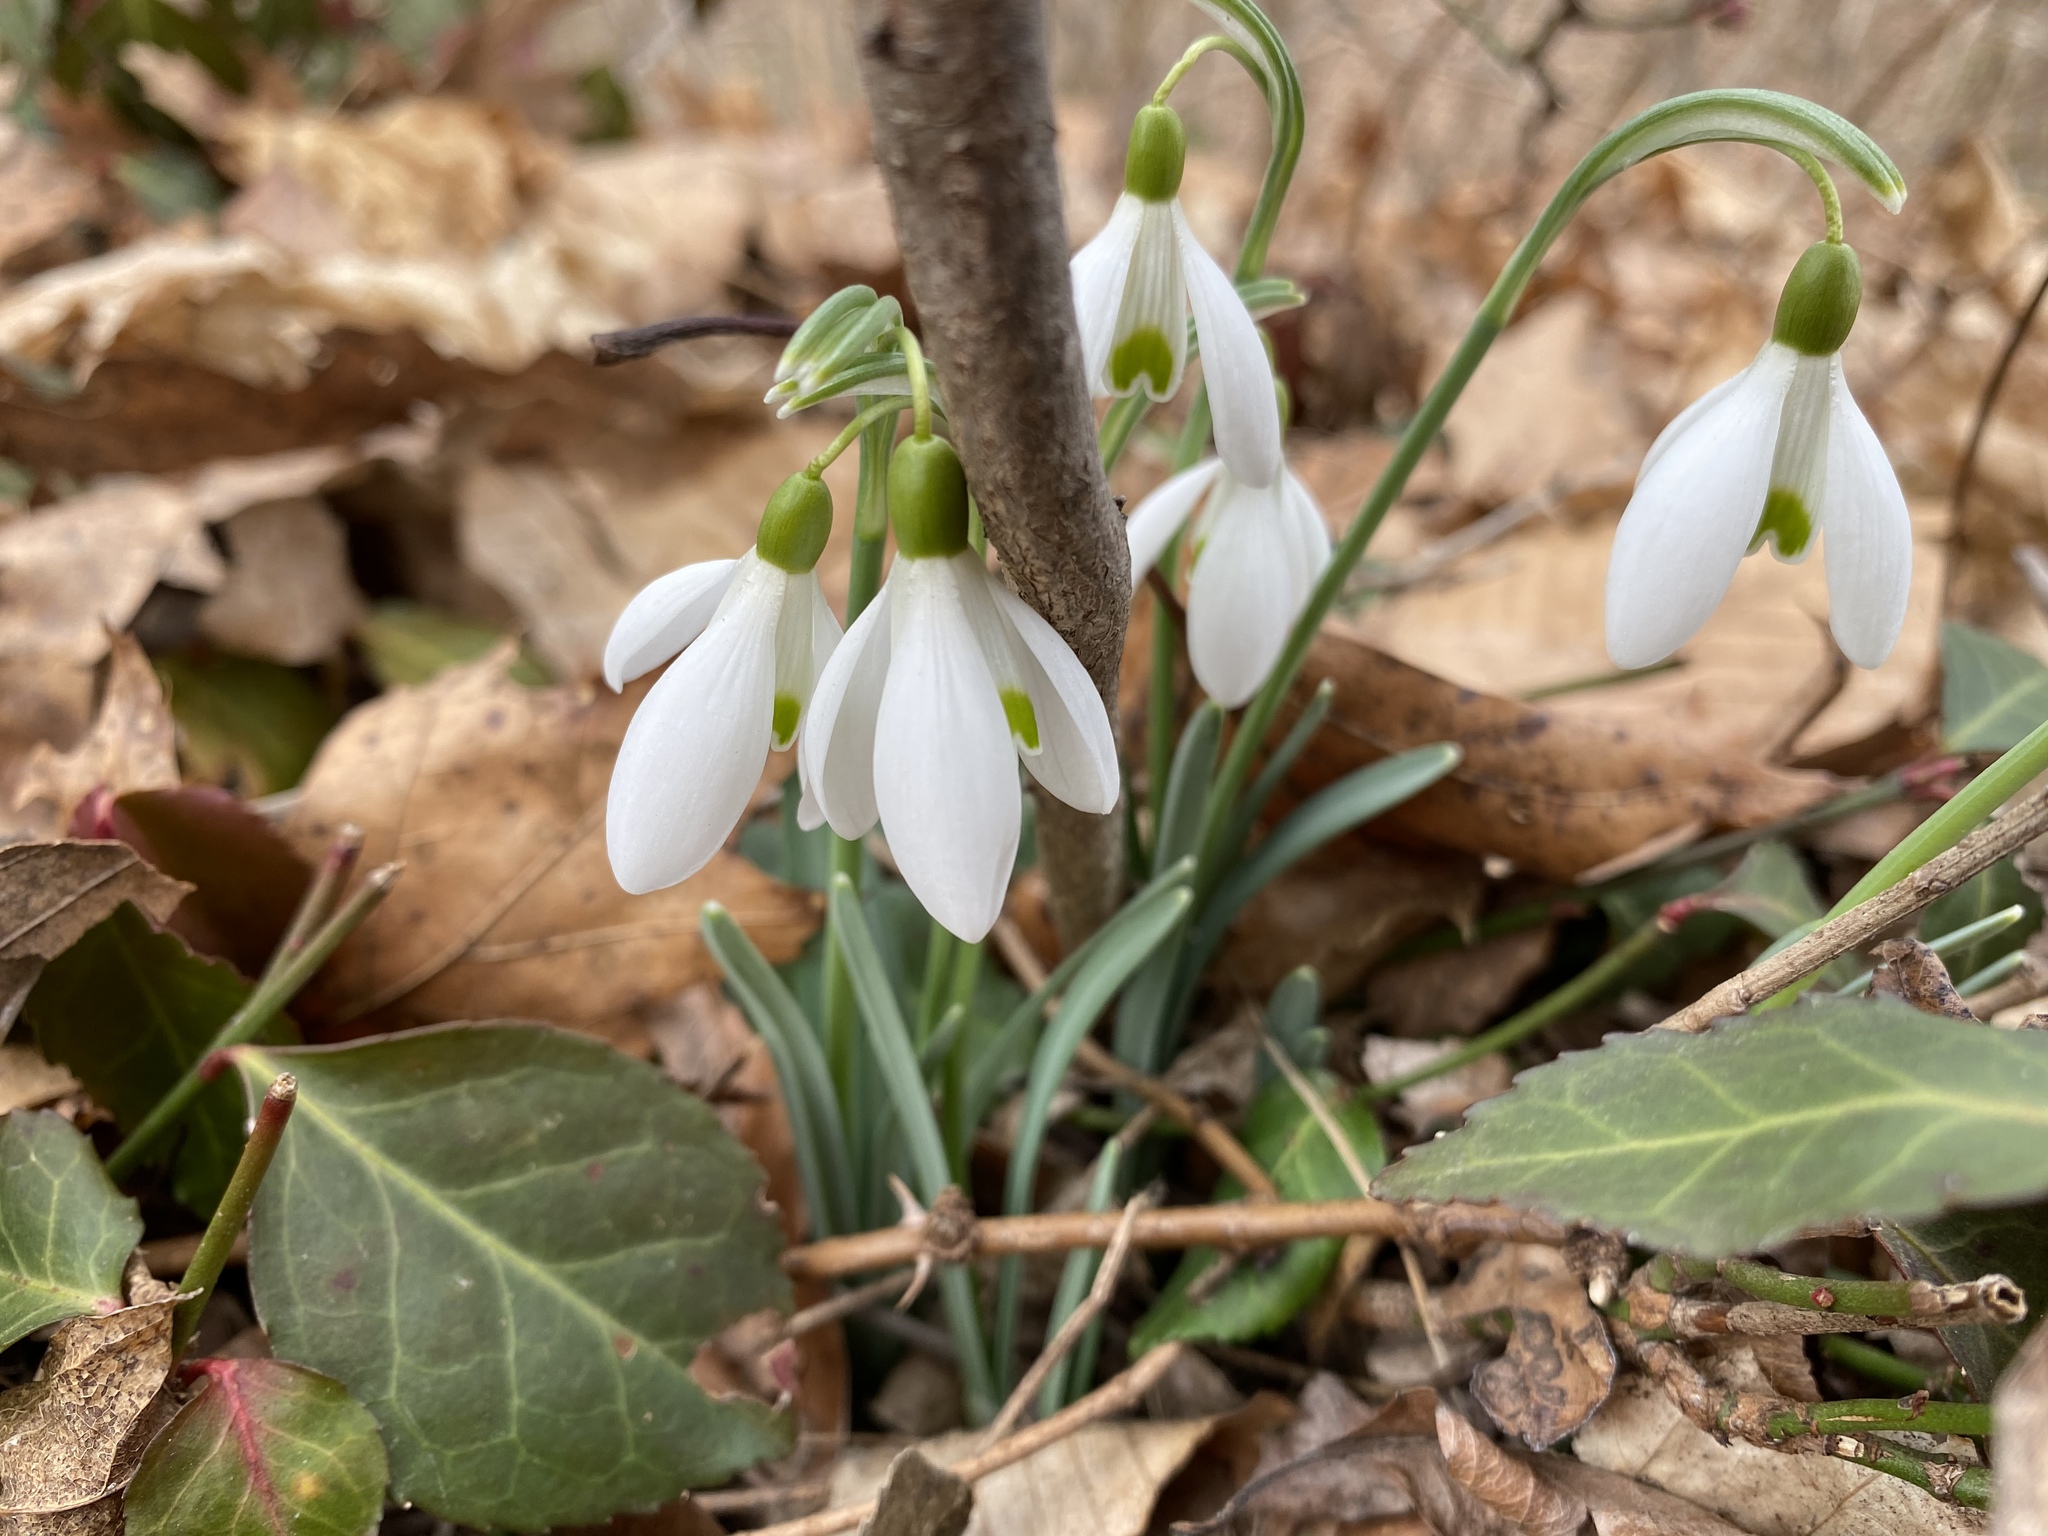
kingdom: Plantae
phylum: Tracheophyta
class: Liliopsida
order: Asparagales
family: Amaryllidaceae
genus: Galanthus
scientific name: Galanthus nivalis
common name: Snowdrop
